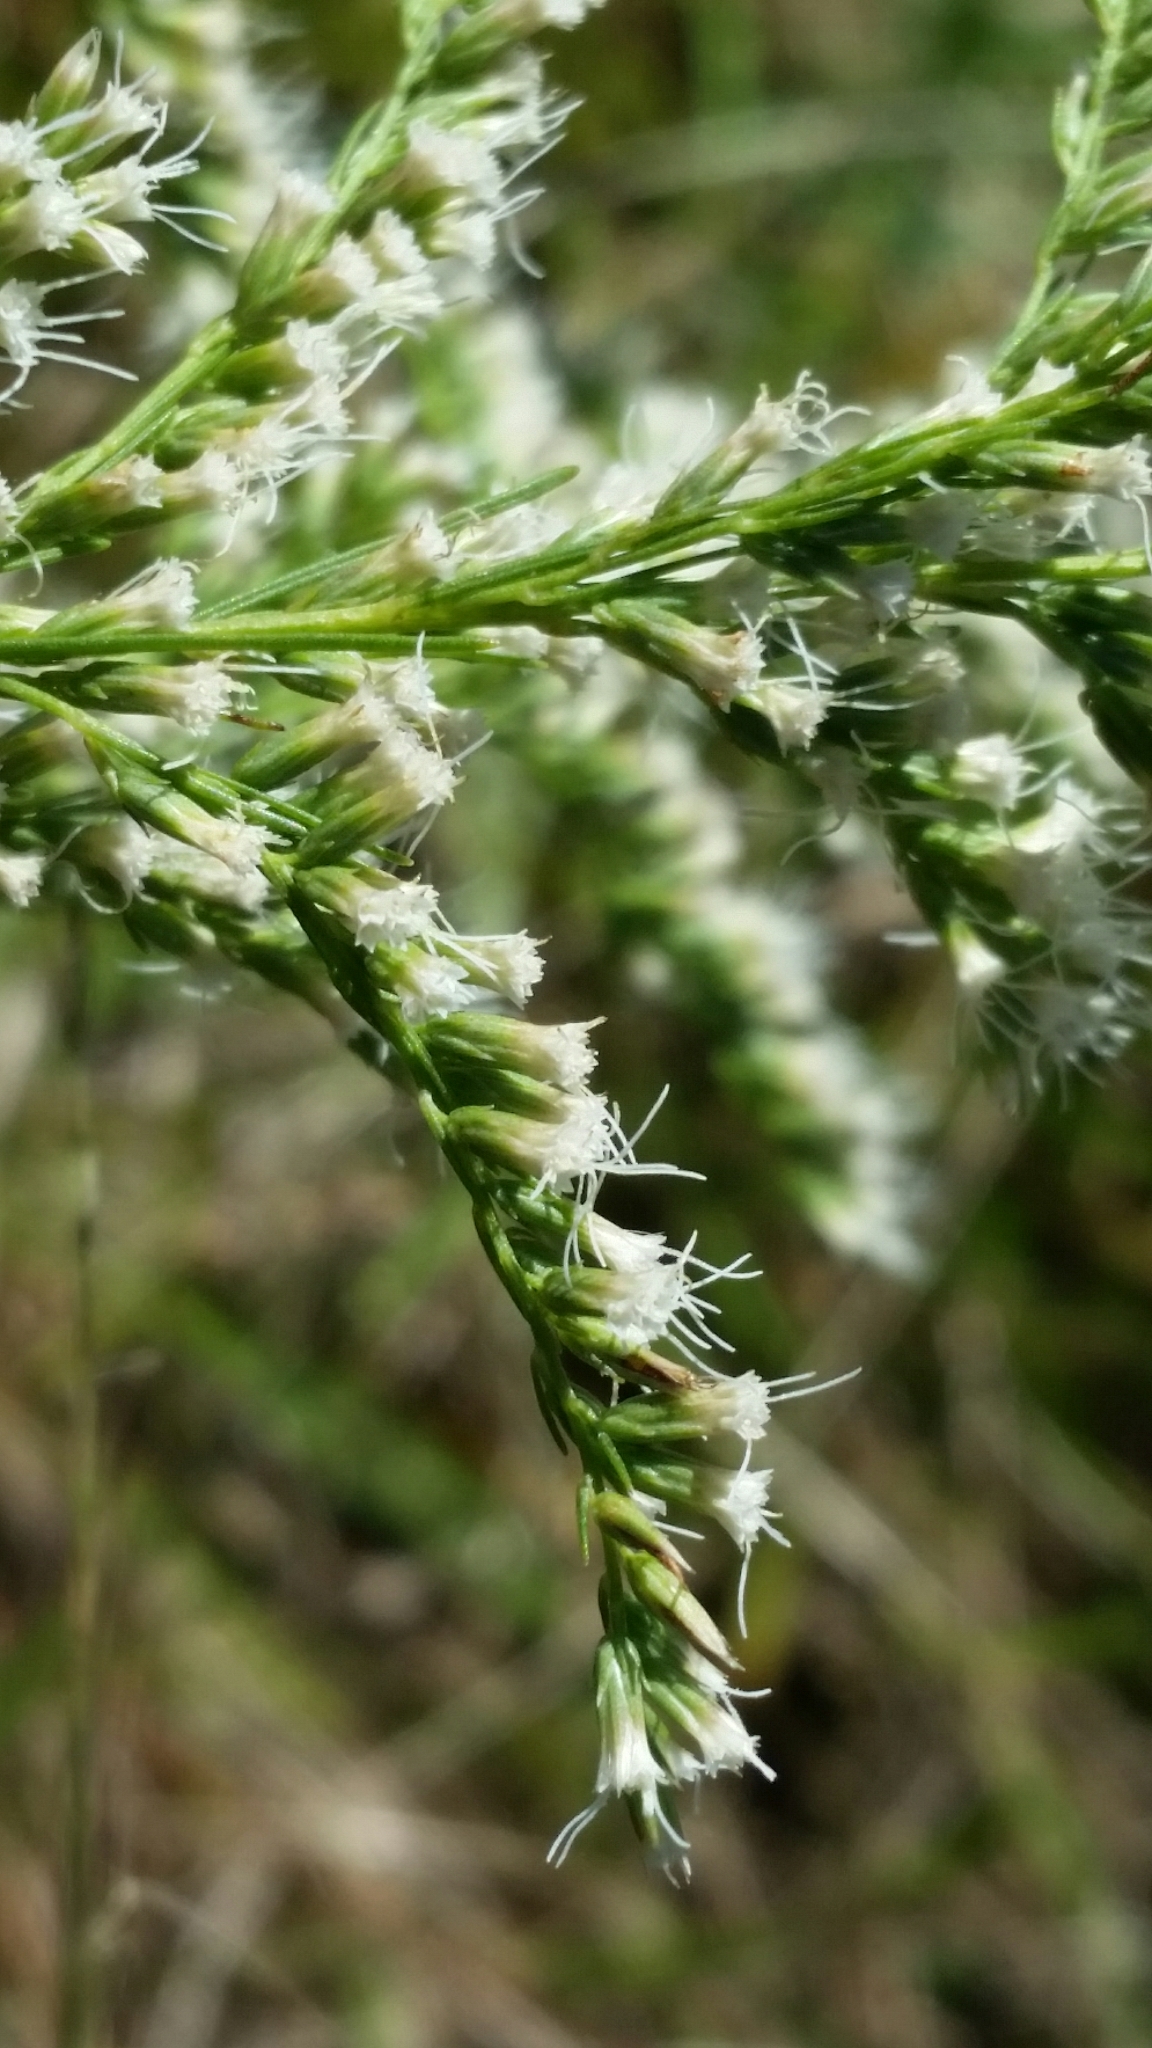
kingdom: Plantae
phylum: Tracheophyta
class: Magnoliopsida
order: Asterales
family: Asteraceae
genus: Eupatorium
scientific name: Eupatorium leptophyllum
